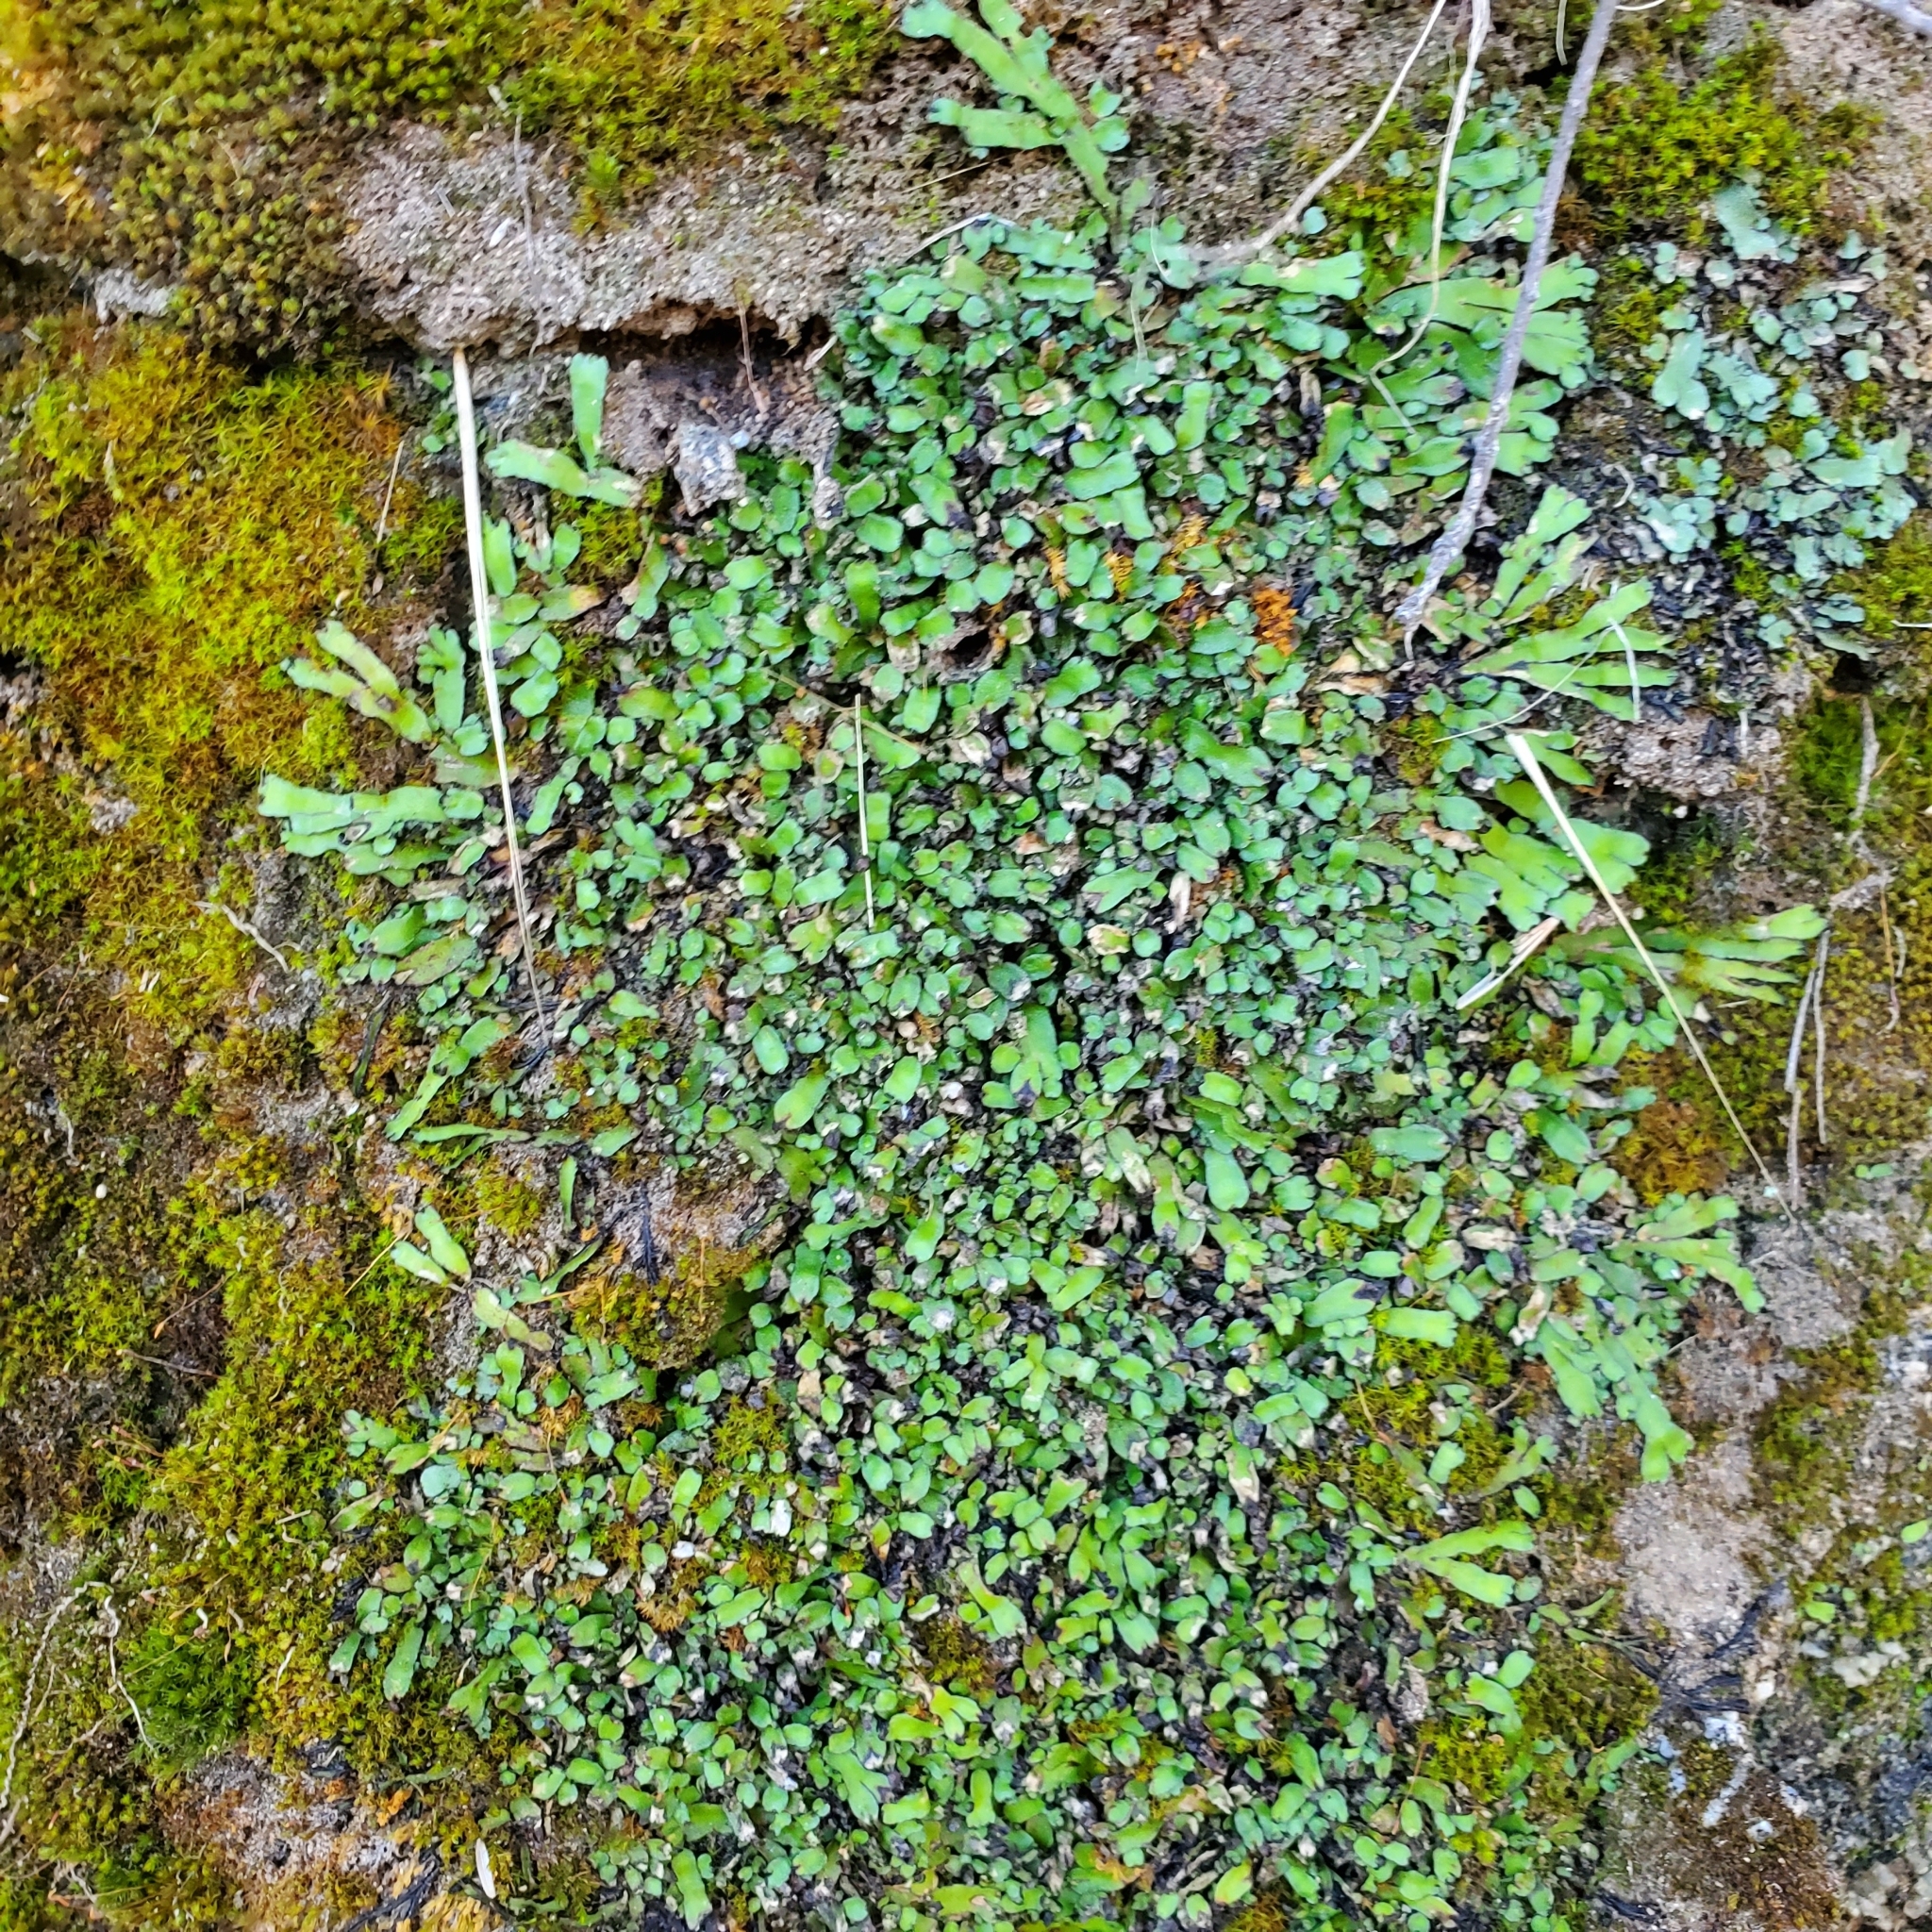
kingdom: Plantae
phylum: Marchantiophyta
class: Marchantiopsida
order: Marchantiales
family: Targioniaceae
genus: Targionia
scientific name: Targionia hypophylla
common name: Orobus-seed liverwort
